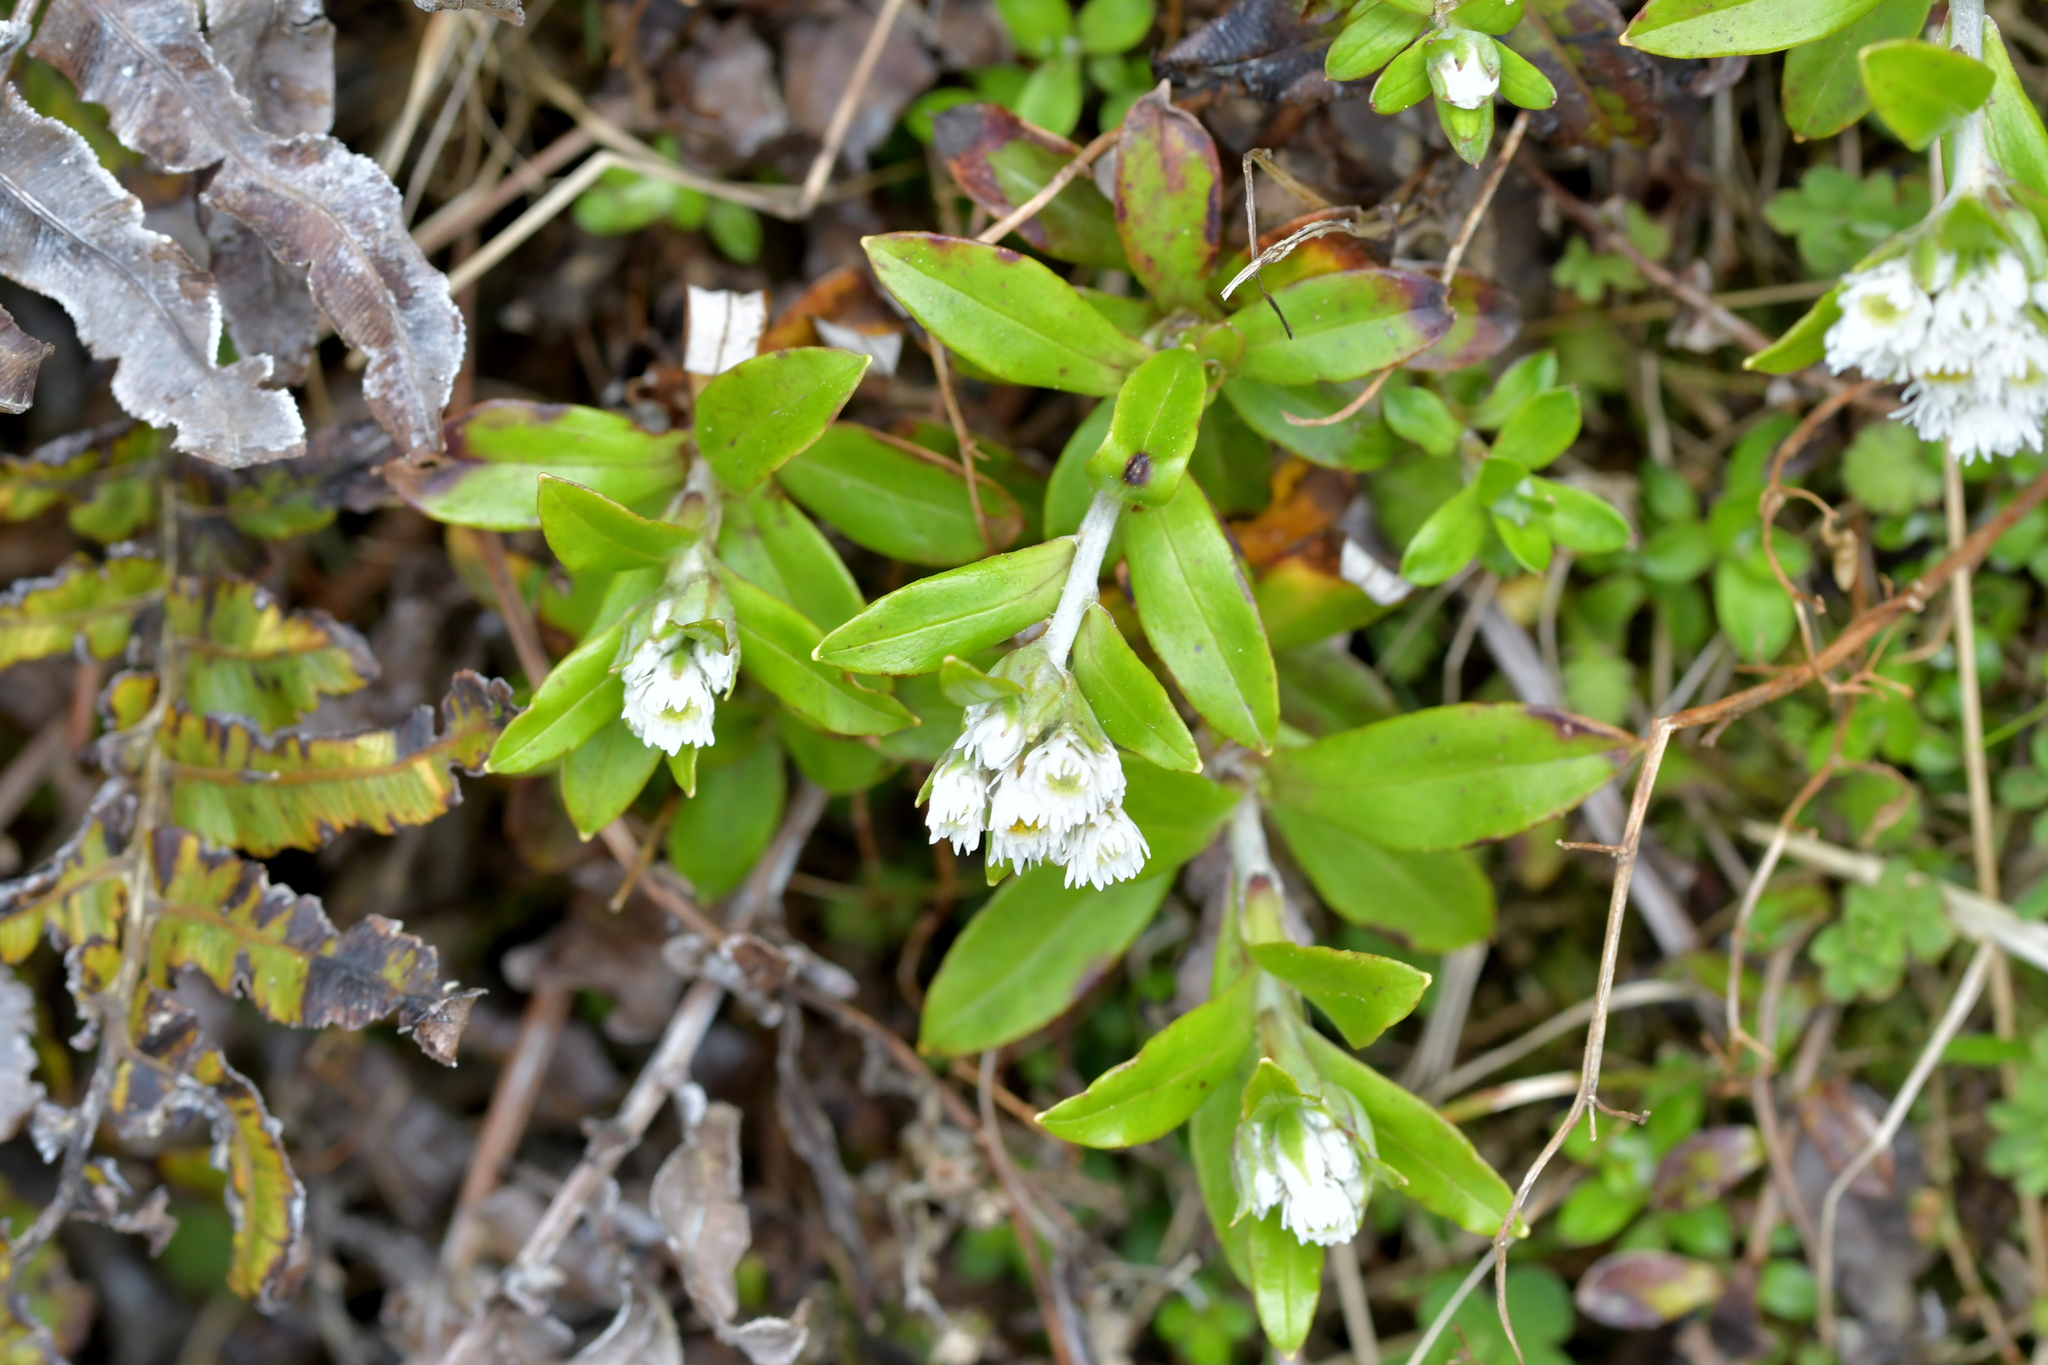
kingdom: Plantae
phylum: Tracheophyta
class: Magnoliopsida
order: Asterales
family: Asteraceae
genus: Anaphalioides
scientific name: Anaphalioides trinervis
